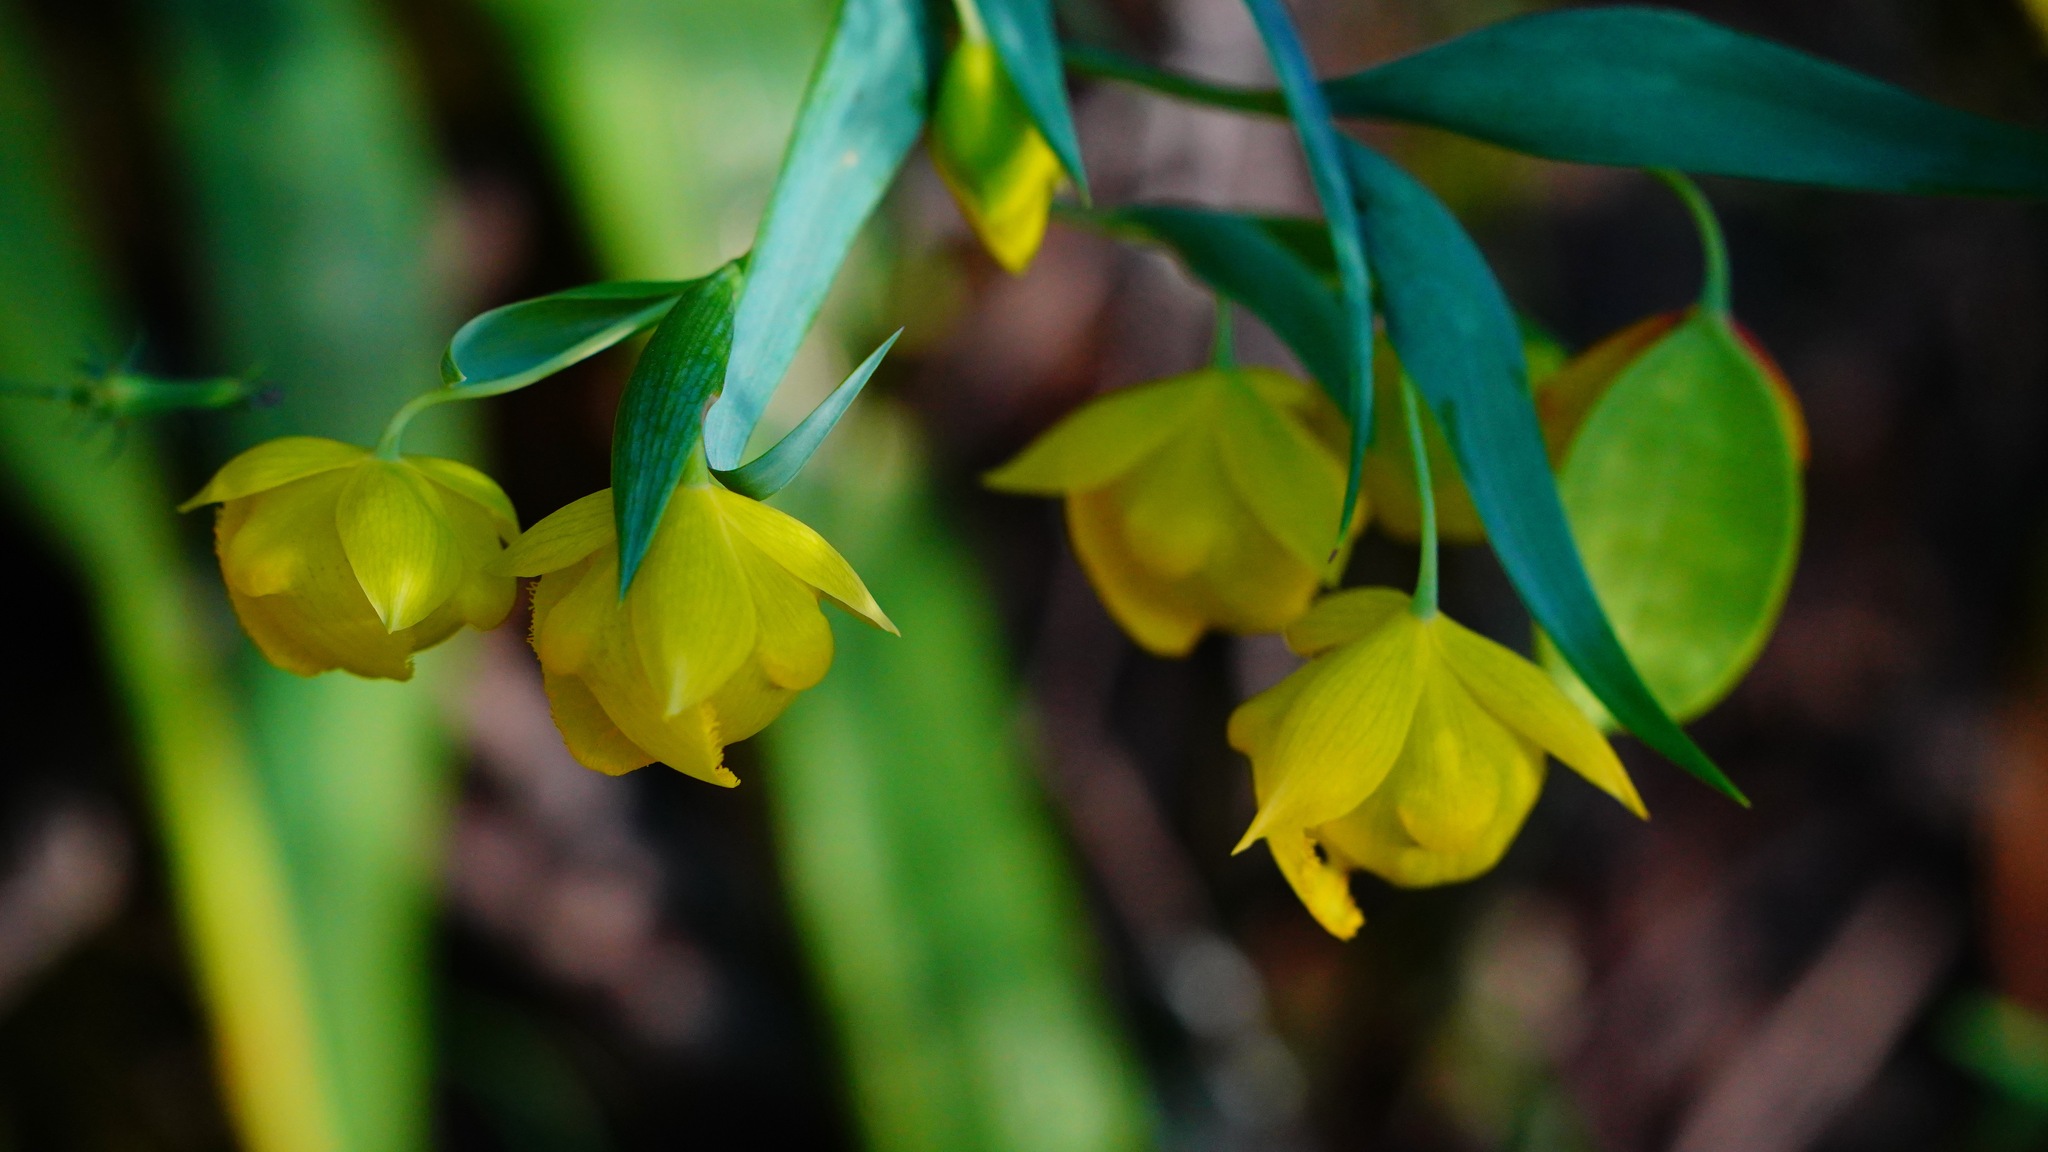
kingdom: Plantae
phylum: Tracheophyta
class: Liliopsida
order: Liliales
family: Liliaceae
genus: Calochortus
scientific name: Calochortus pulchellus
